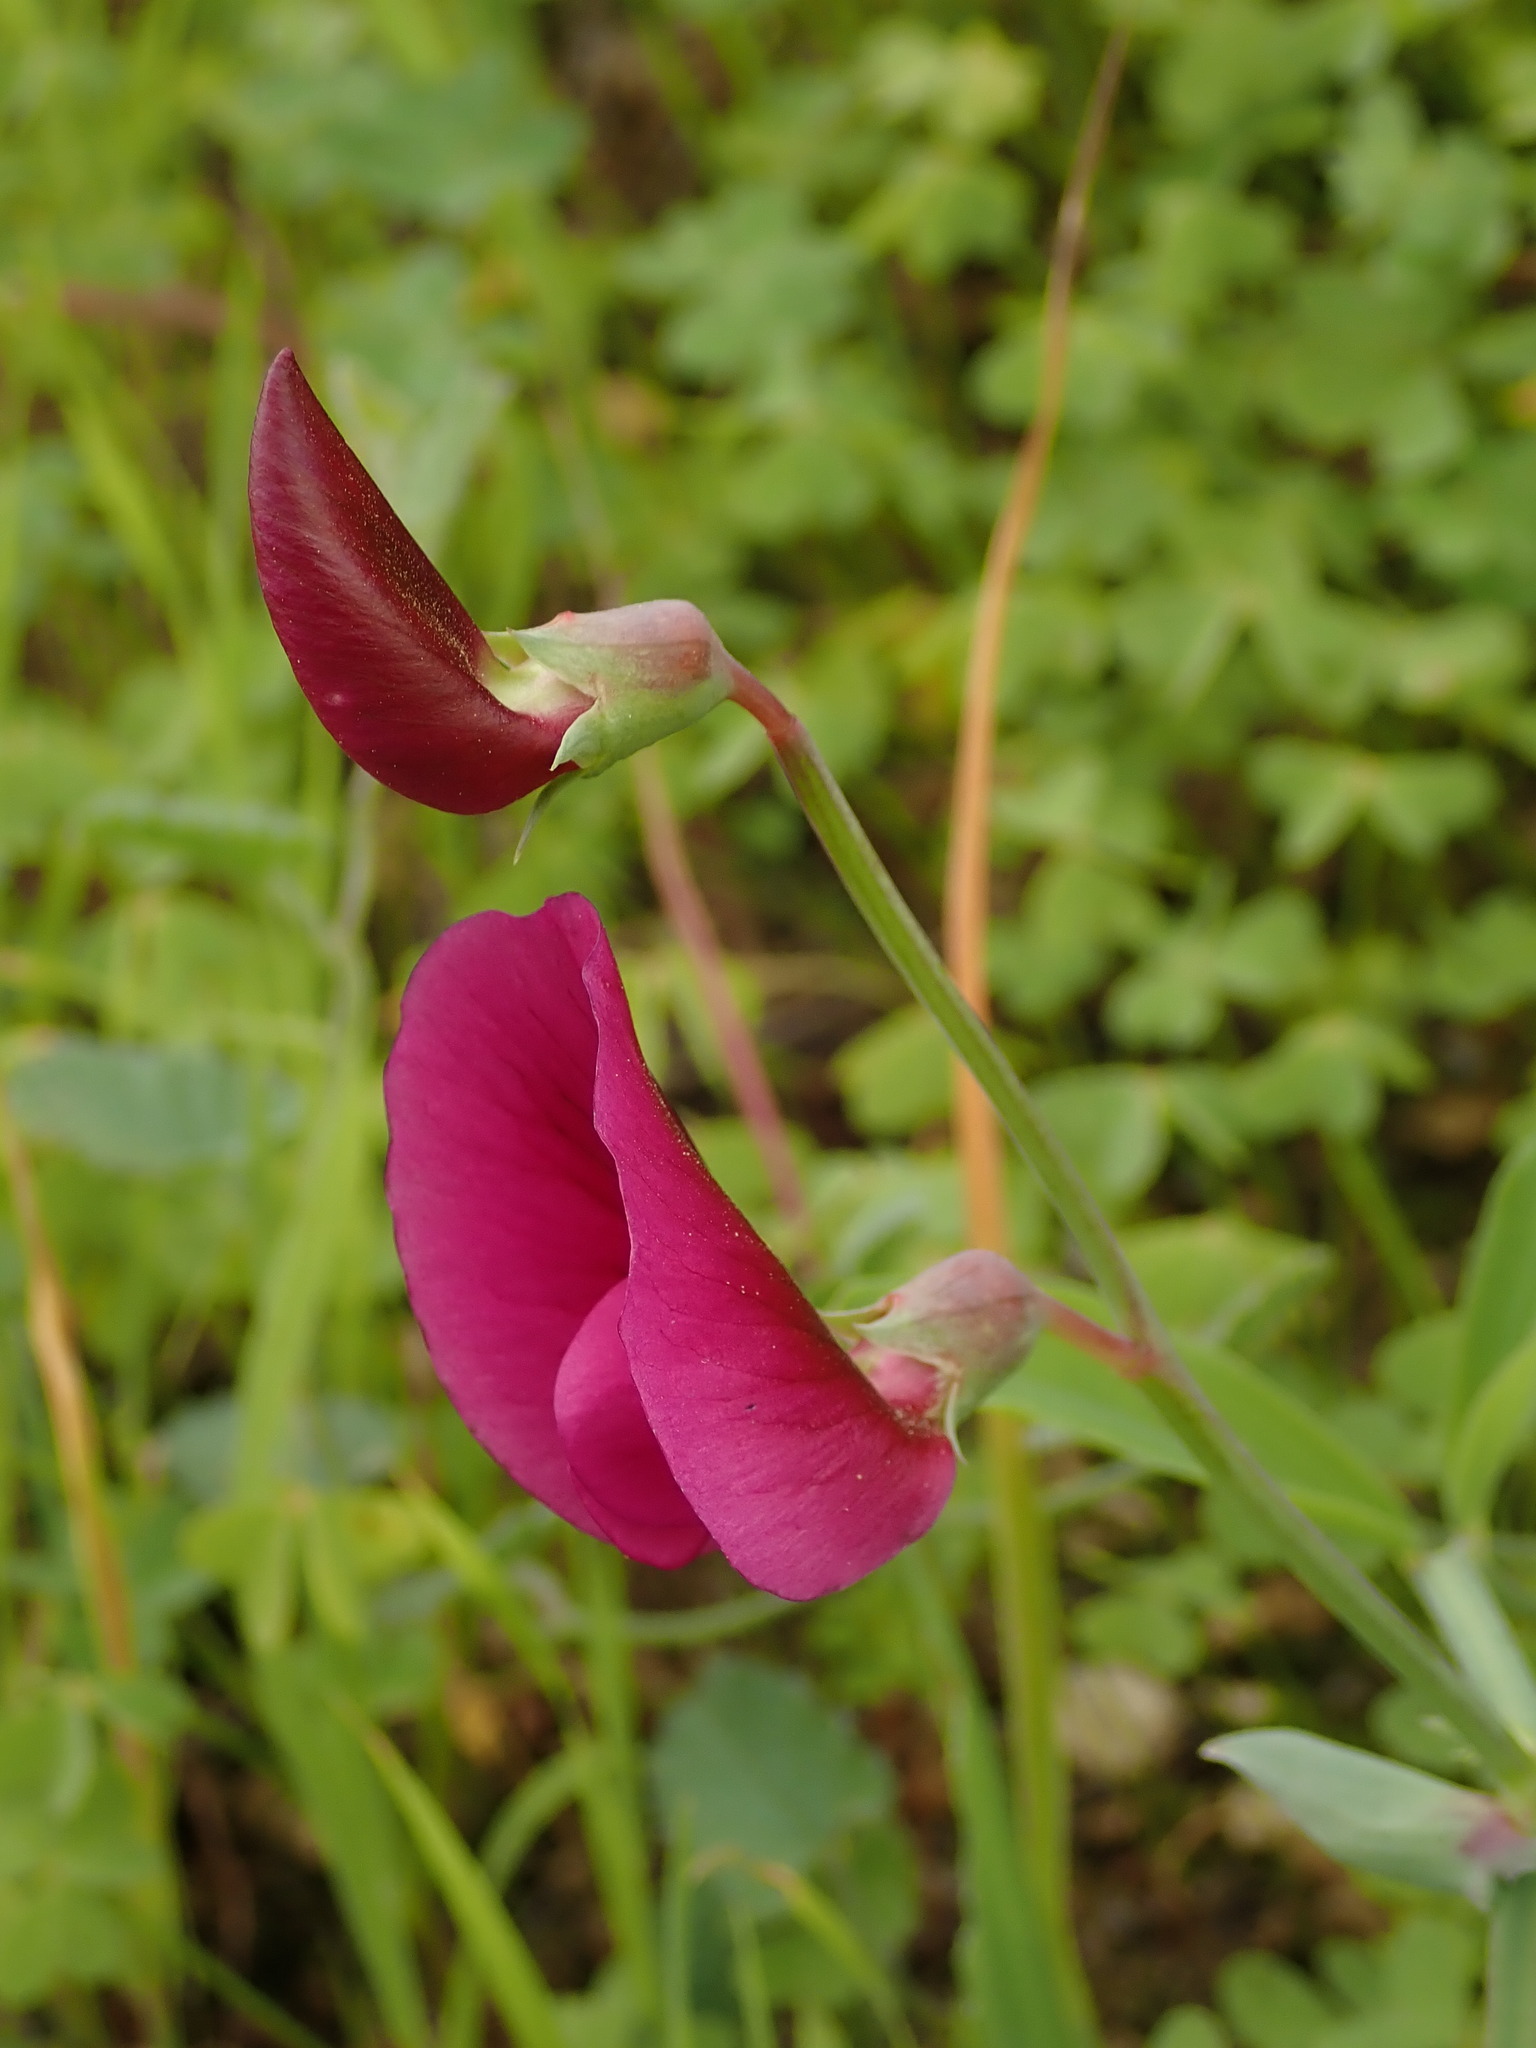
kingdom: Plantae
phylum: Tracheophyta
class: Magnoliopsida
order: Fabales
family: Fabaceae
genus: Lathyrus
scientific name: Lathyrus tingitanus
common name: Tangier pea
